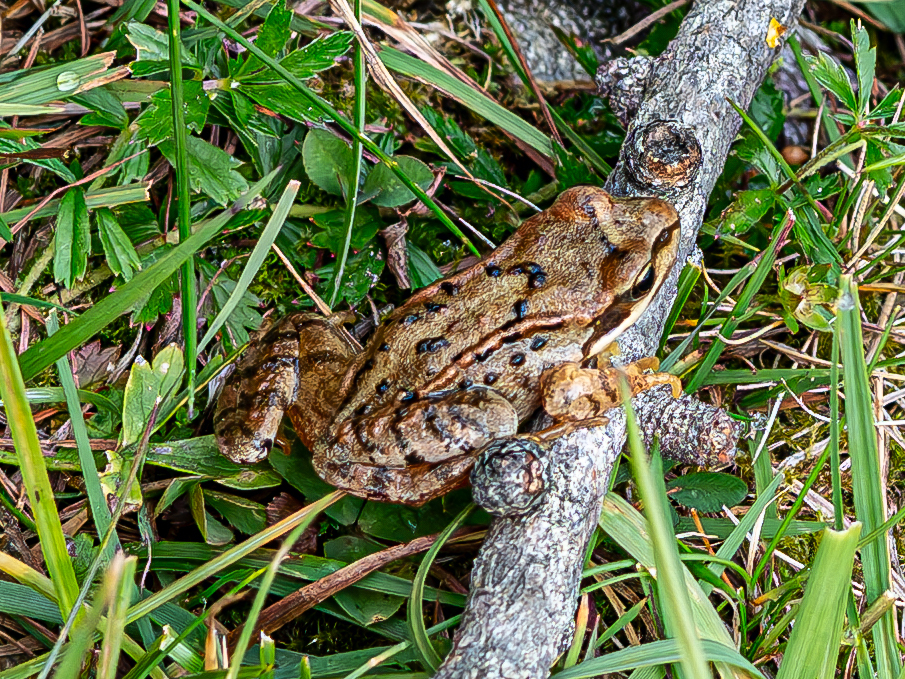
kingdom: Animalia
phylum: Chordata
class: Amphibia
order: Anura
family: Ranidae
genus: Rana
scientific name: Rana temporaria
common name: Common frog
